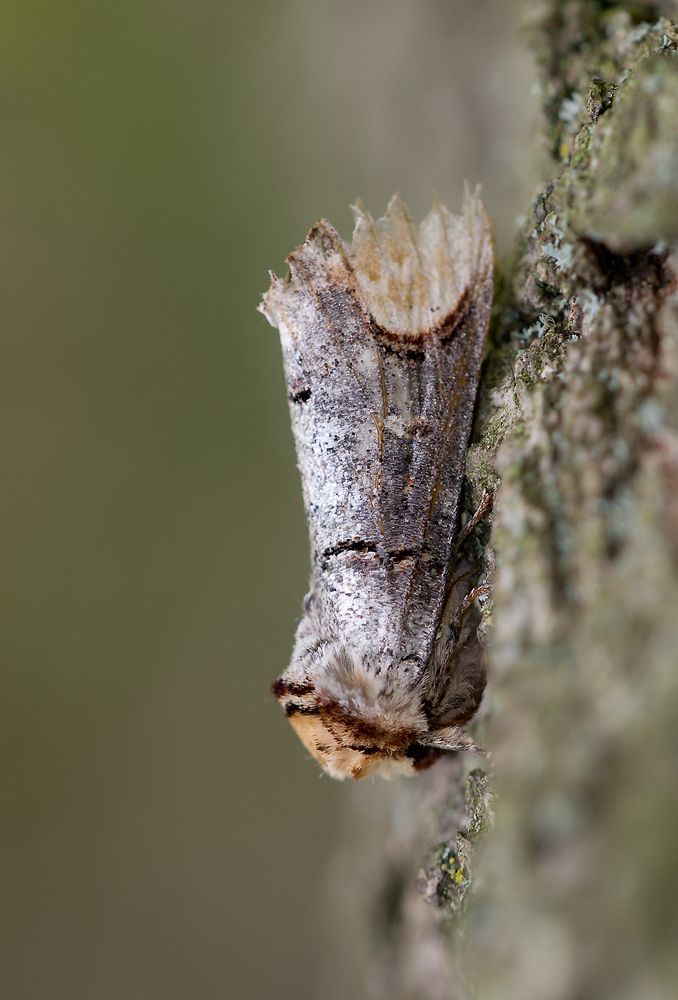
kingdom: Animalia
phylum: Arthropoda
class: Insecta
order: Lepidoptera
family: Notodontidae
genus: Phalera
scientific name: Phalera bucephala
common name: Buff-tip
